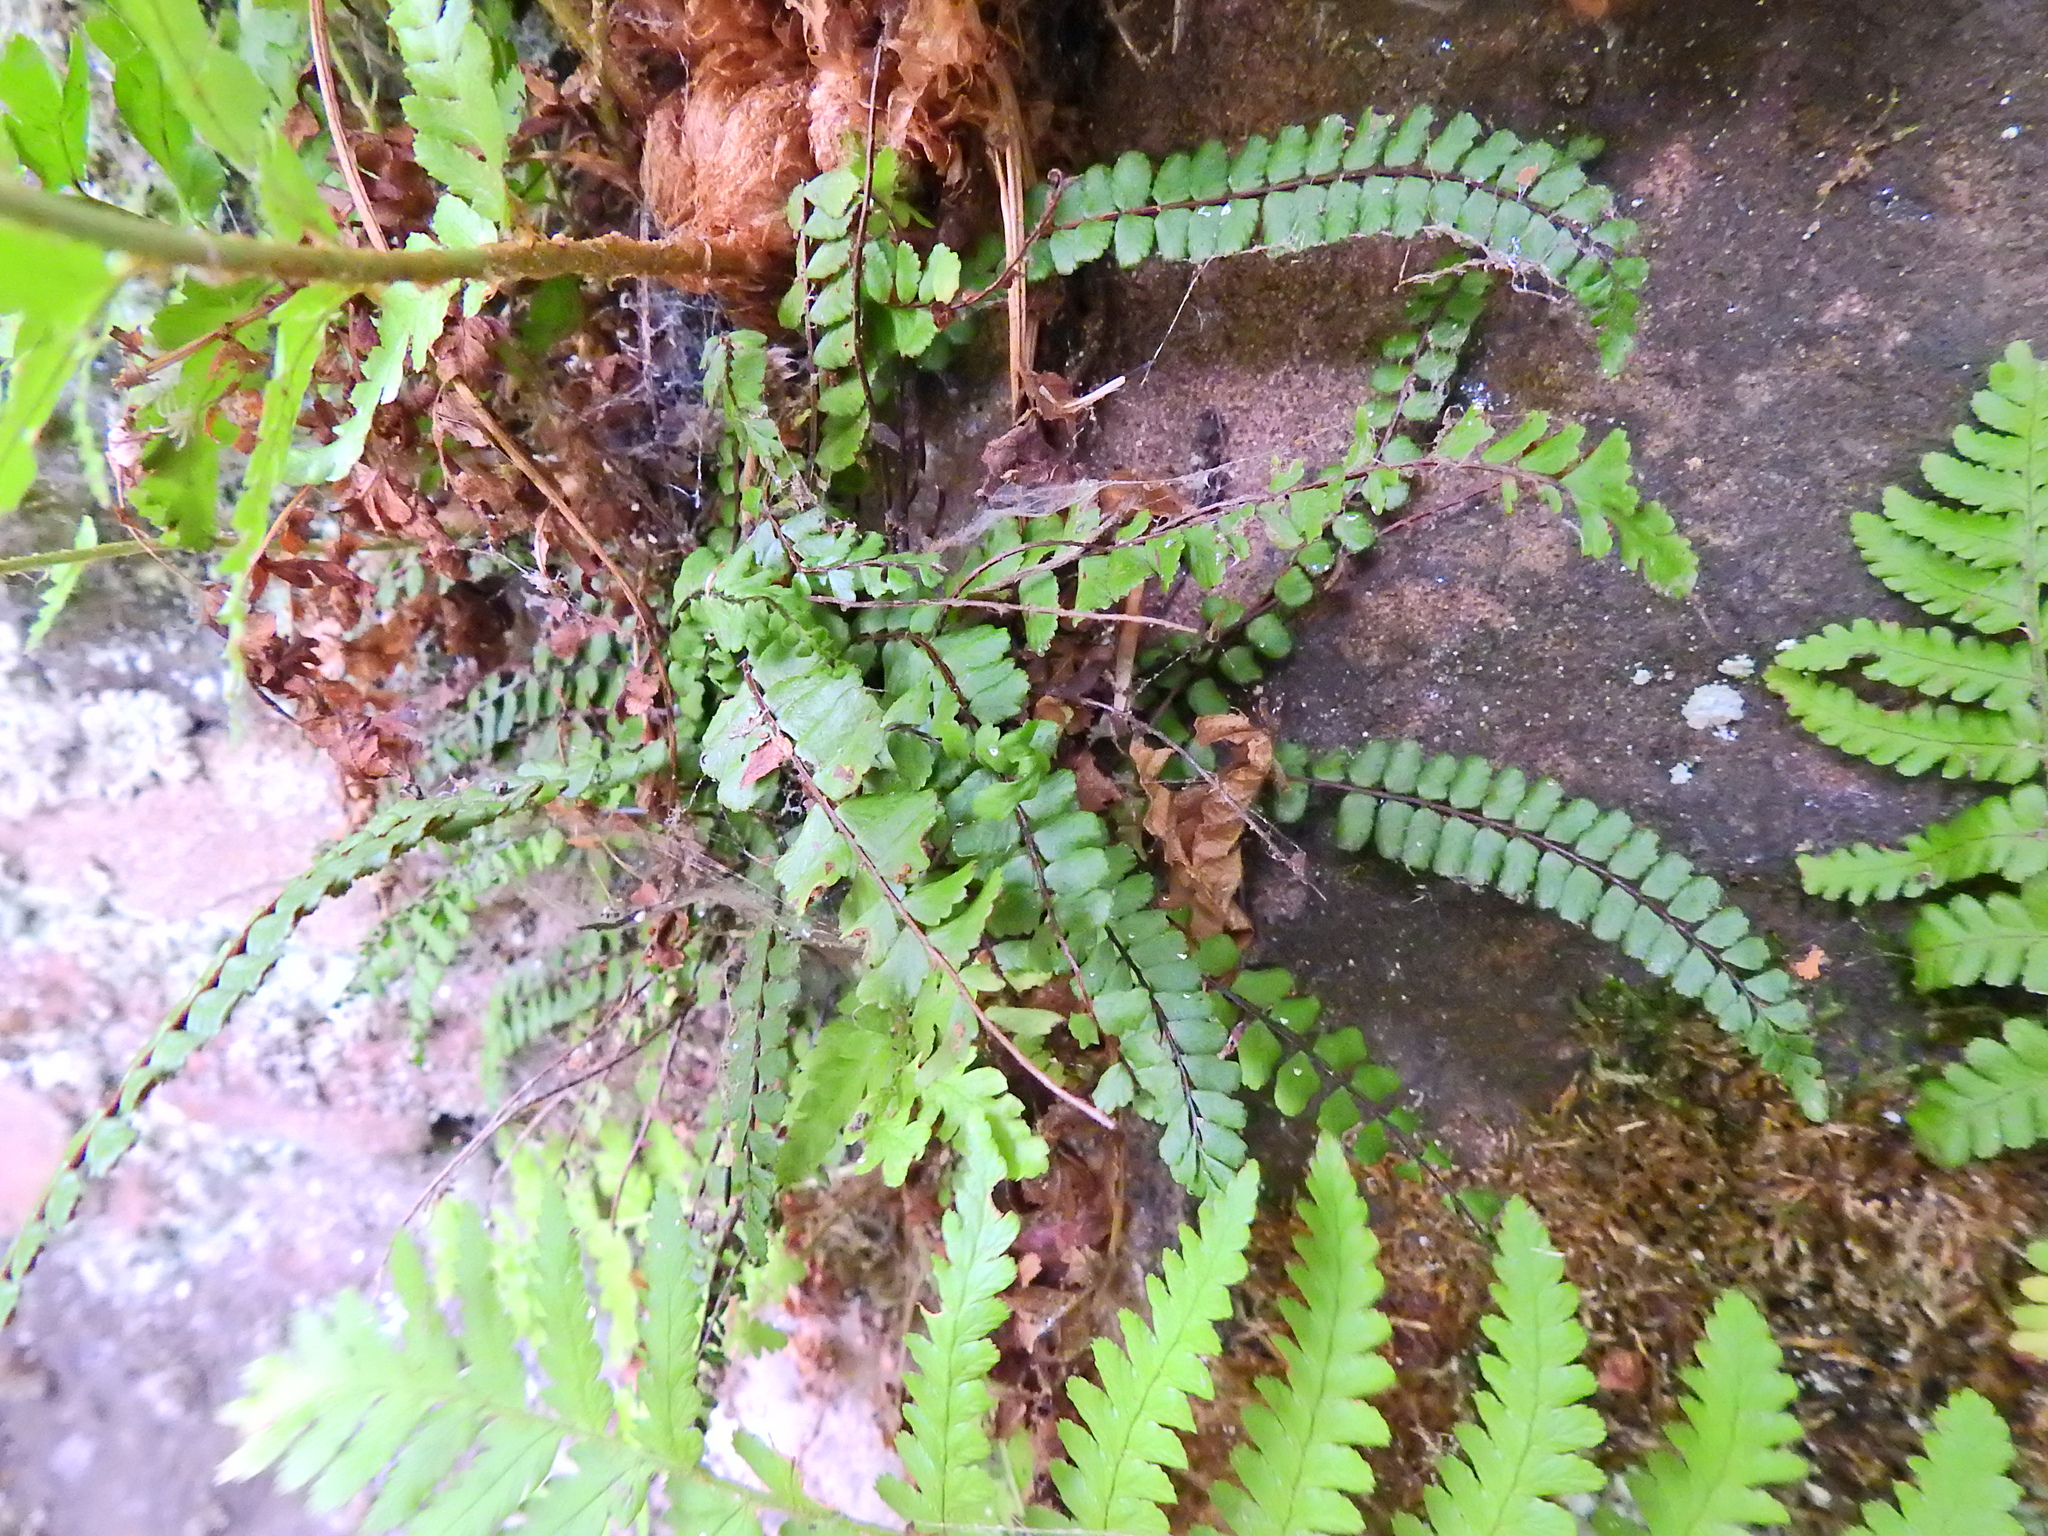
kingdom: Plantae
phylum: Tracheophyta
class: Polypodiopsida
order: Polypodiales
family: Aspleniaceae
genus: Asplenium
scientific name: Asplenium trichomanes
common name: Maidenhair spleenwort
